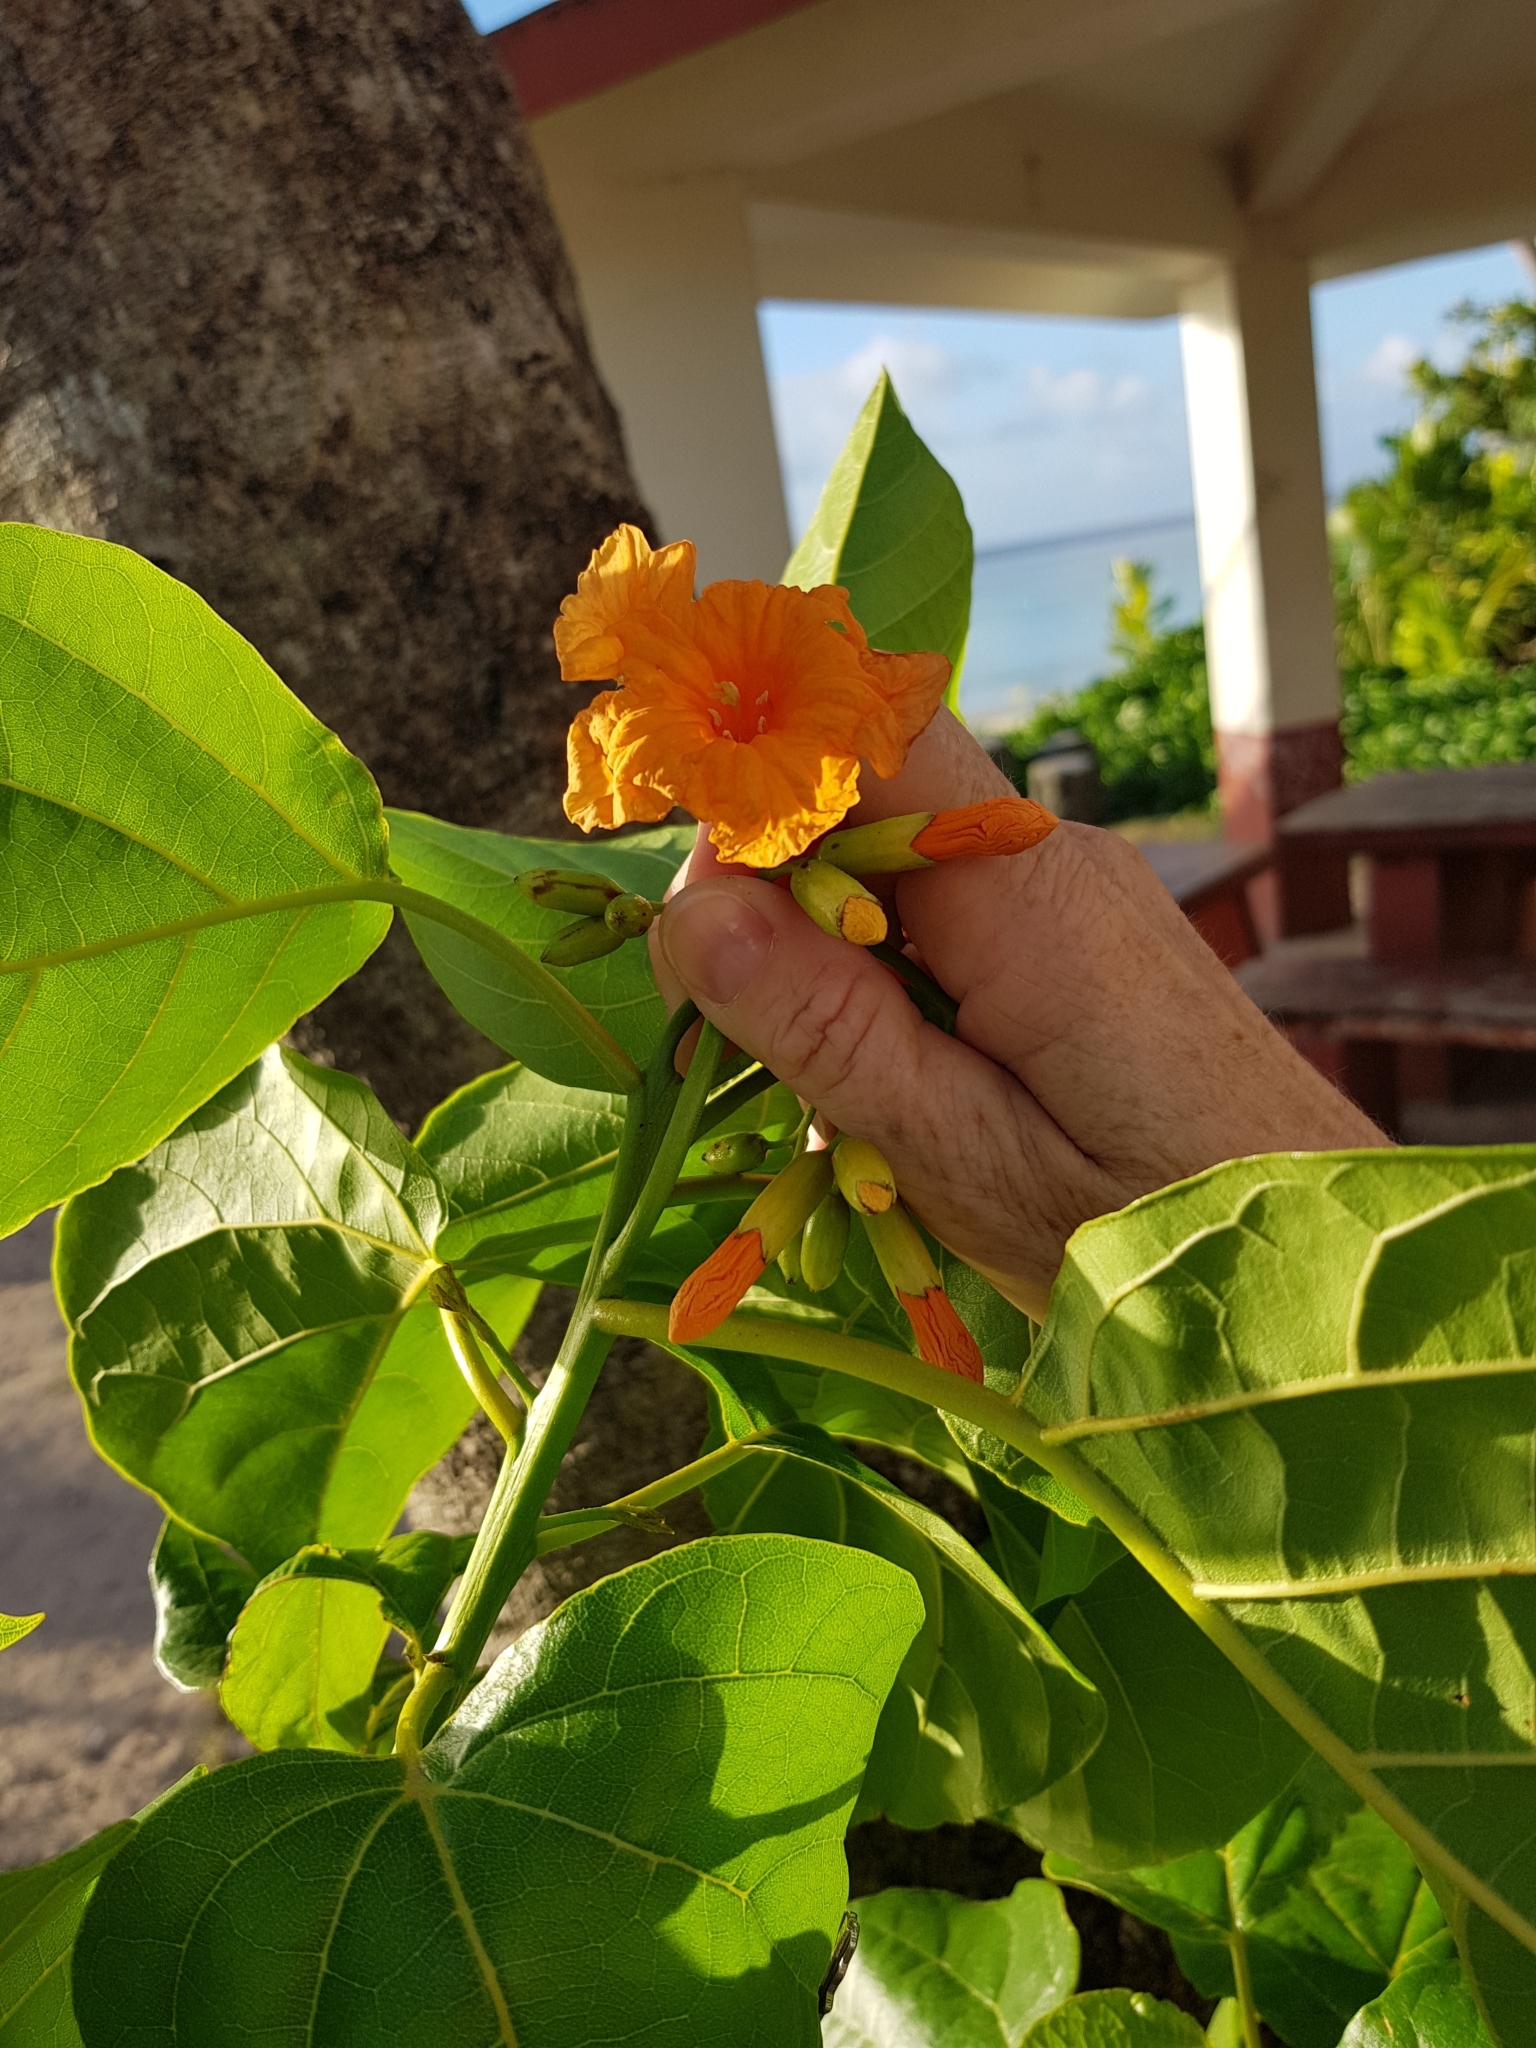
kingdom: Plantae
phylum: Tracheophyta
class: Magnoliopsida
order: Boraginales
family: Cordiaceae
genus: Cordia
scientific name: Cordia subcordata
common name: Mareer
